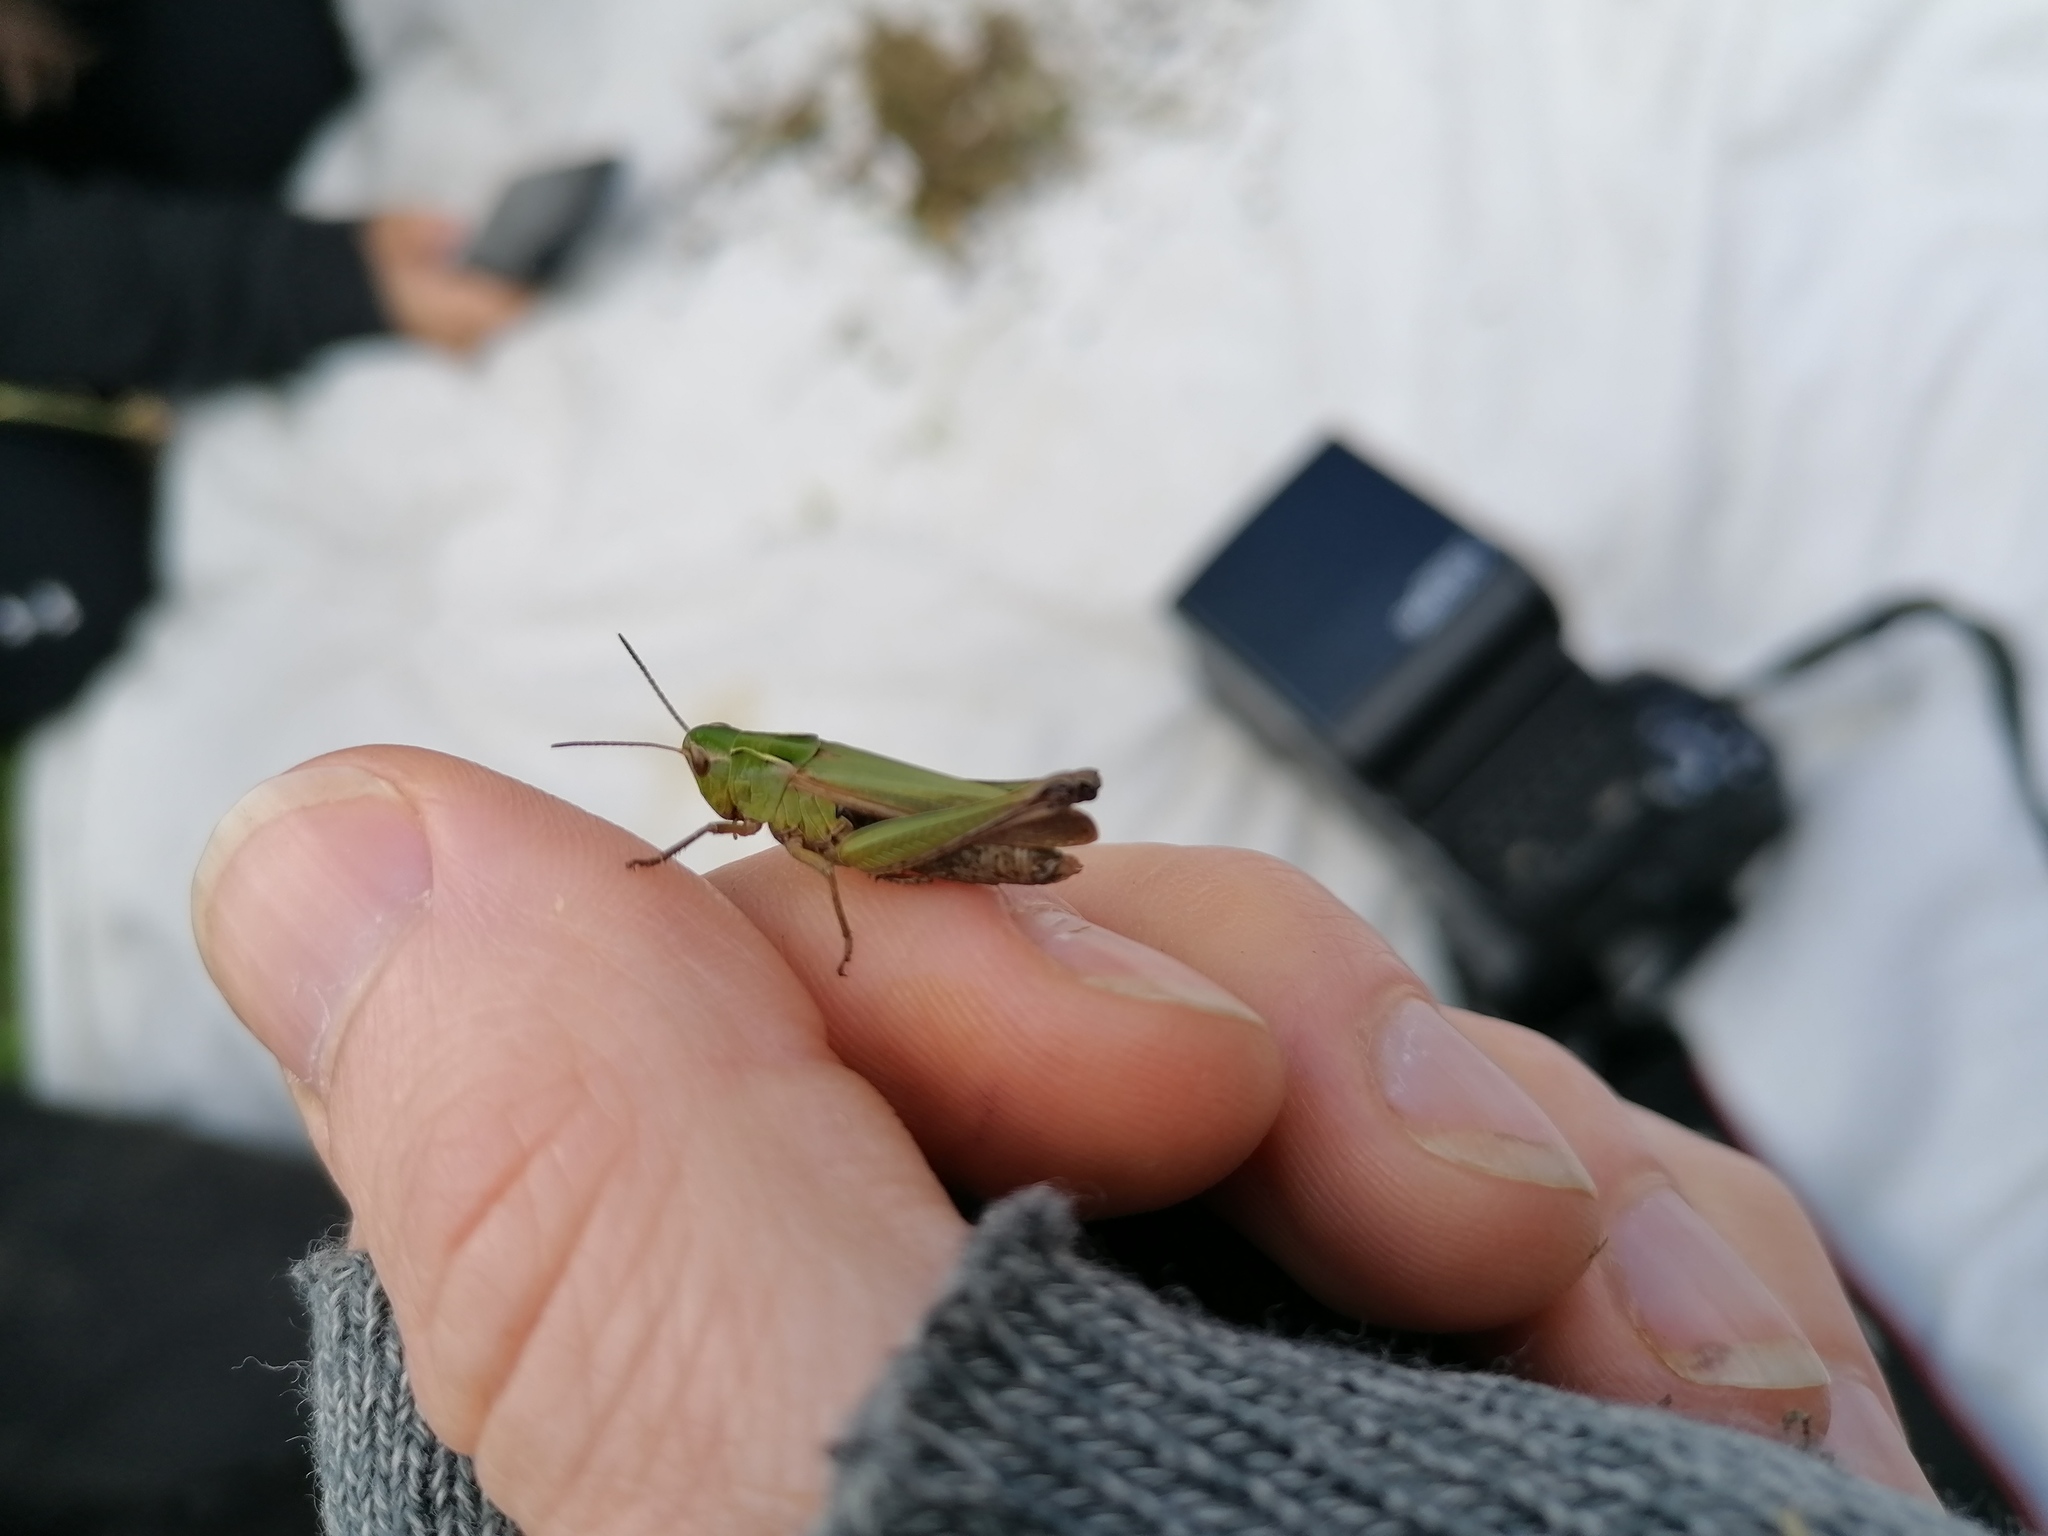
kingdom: Animalia
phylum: Arthropoda
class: Insecta
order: Orthoptera
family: Acrididae
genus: Omocestus
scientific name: Omocestus viridulus
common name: Common green grasshopper
